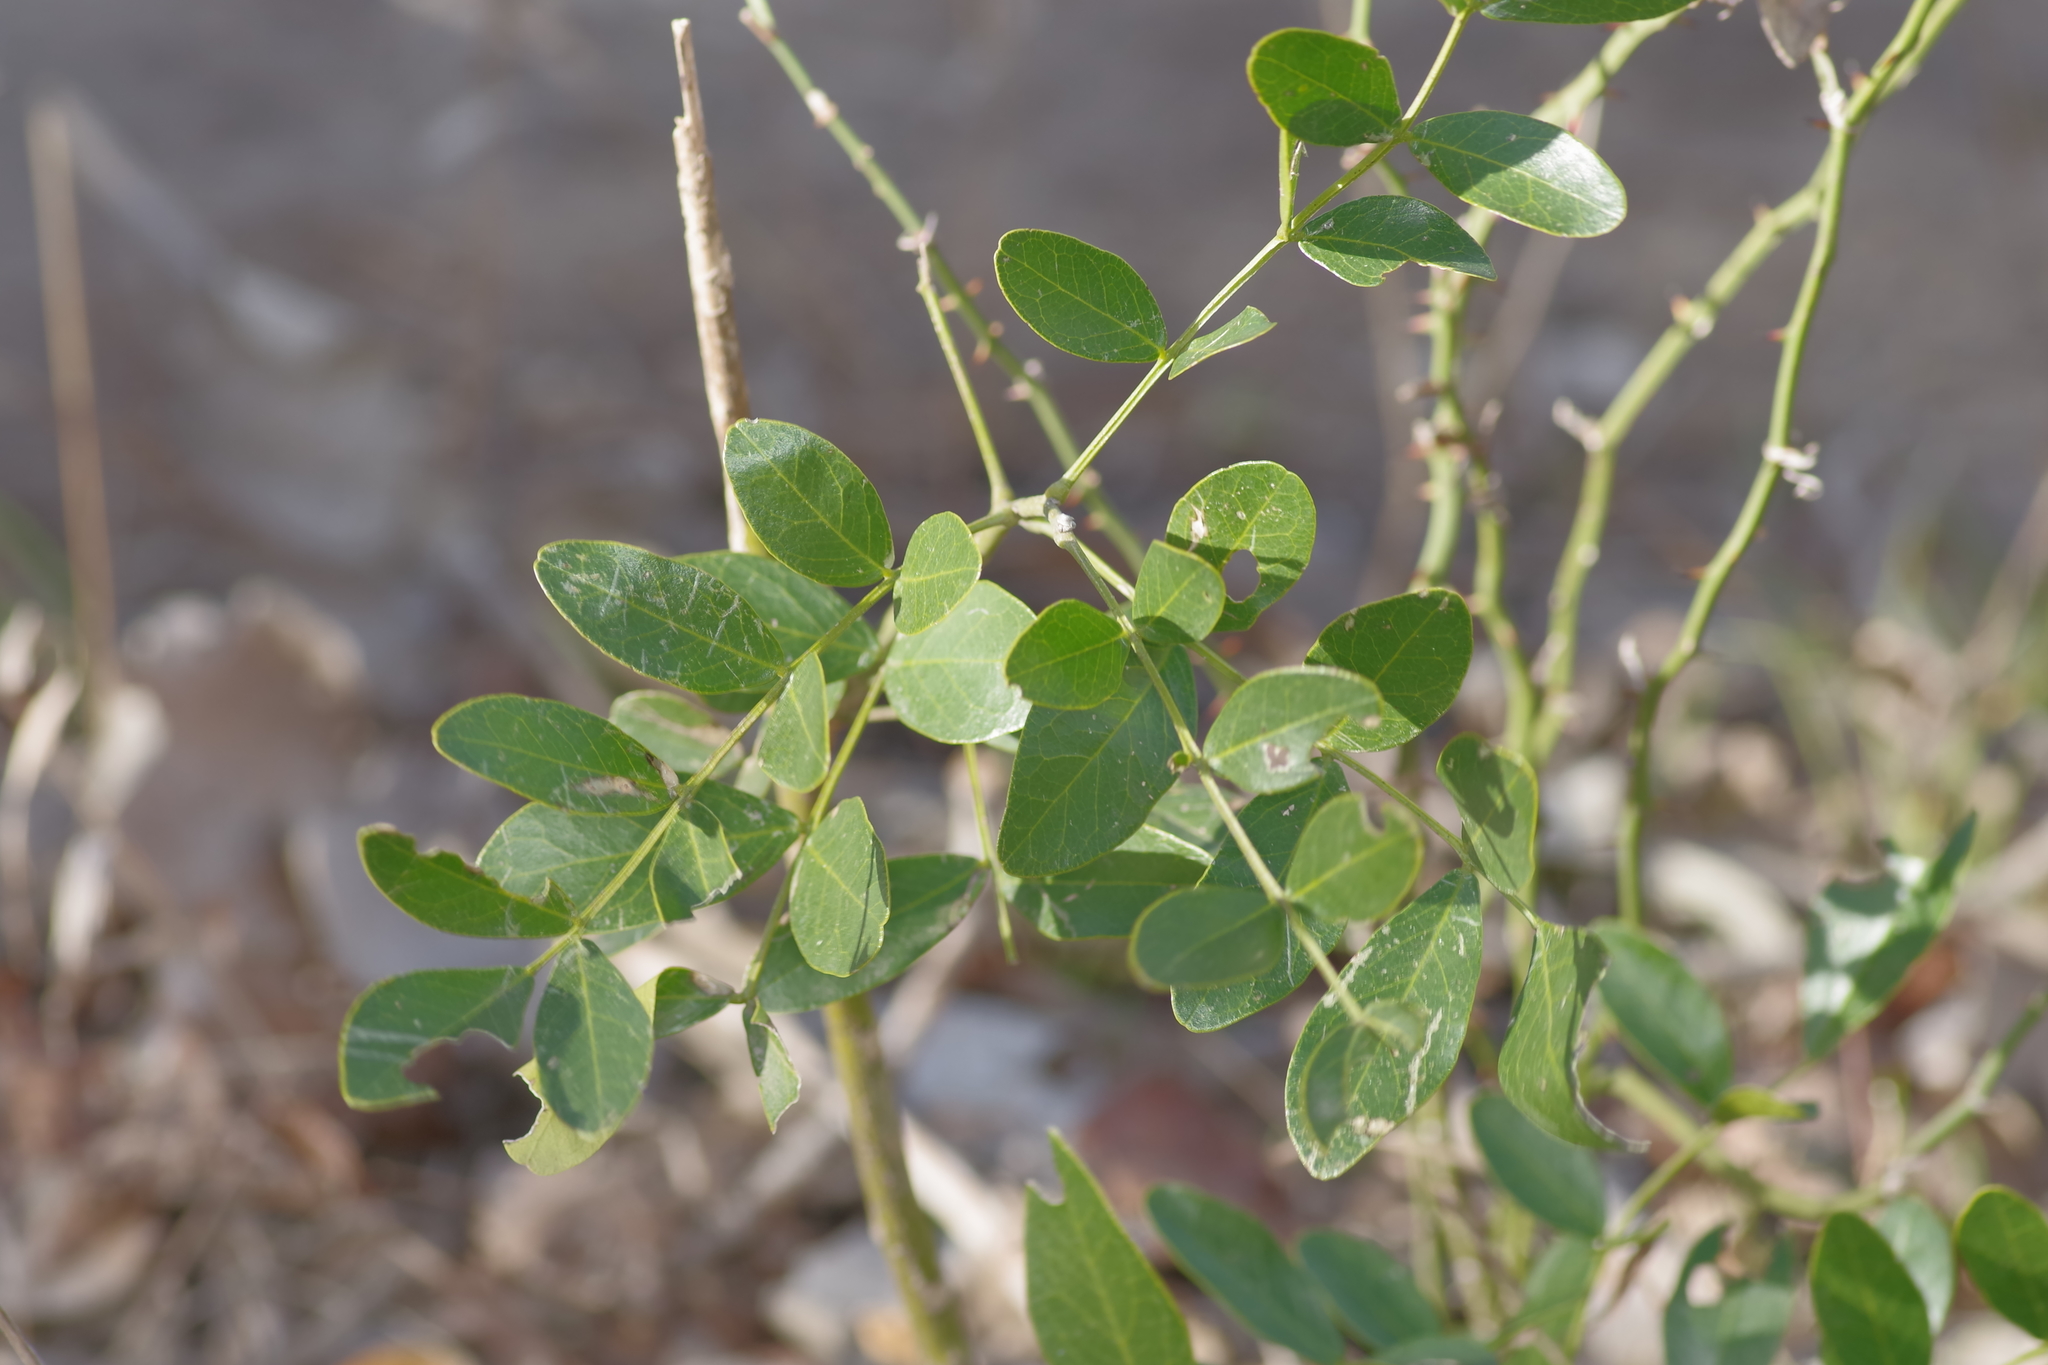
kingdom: Plantae
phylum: Tracheophyta
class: Magnoliopsida
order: Fabales
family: Fabaceae
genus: Dermatophyllum
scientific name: Dermatophyllum secundiflorum
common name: Texas-mountain-laurel
